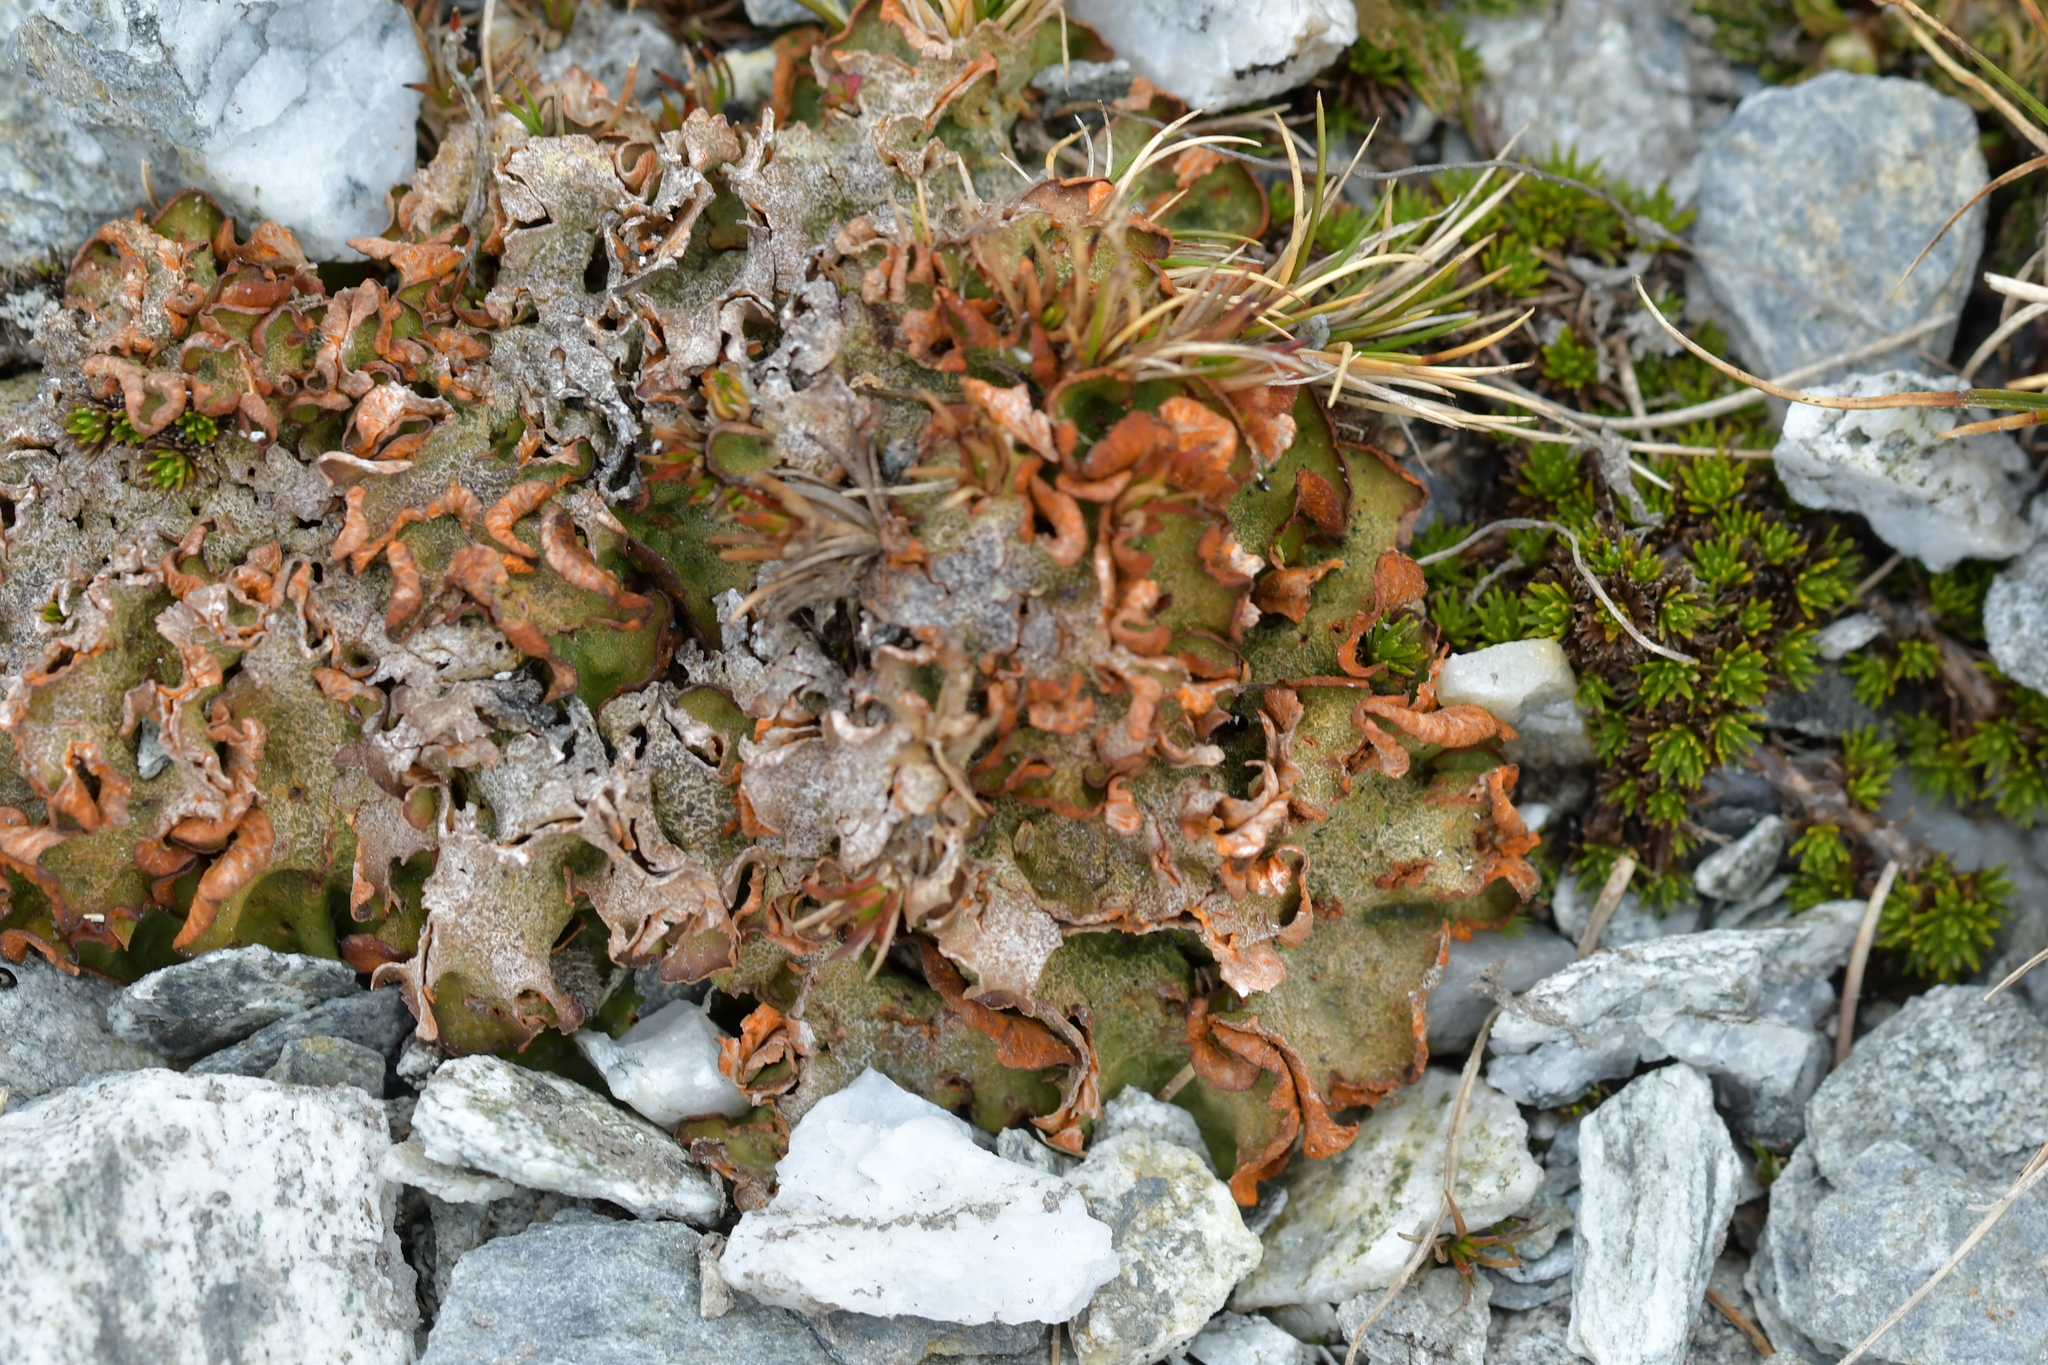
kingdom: Fungi
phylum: Ascomycota
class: Lecanoromycetes
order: Peltigerales
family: Peltigeraceae
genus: Solorina
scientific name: Solorina crocea
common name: Mountain saffron
